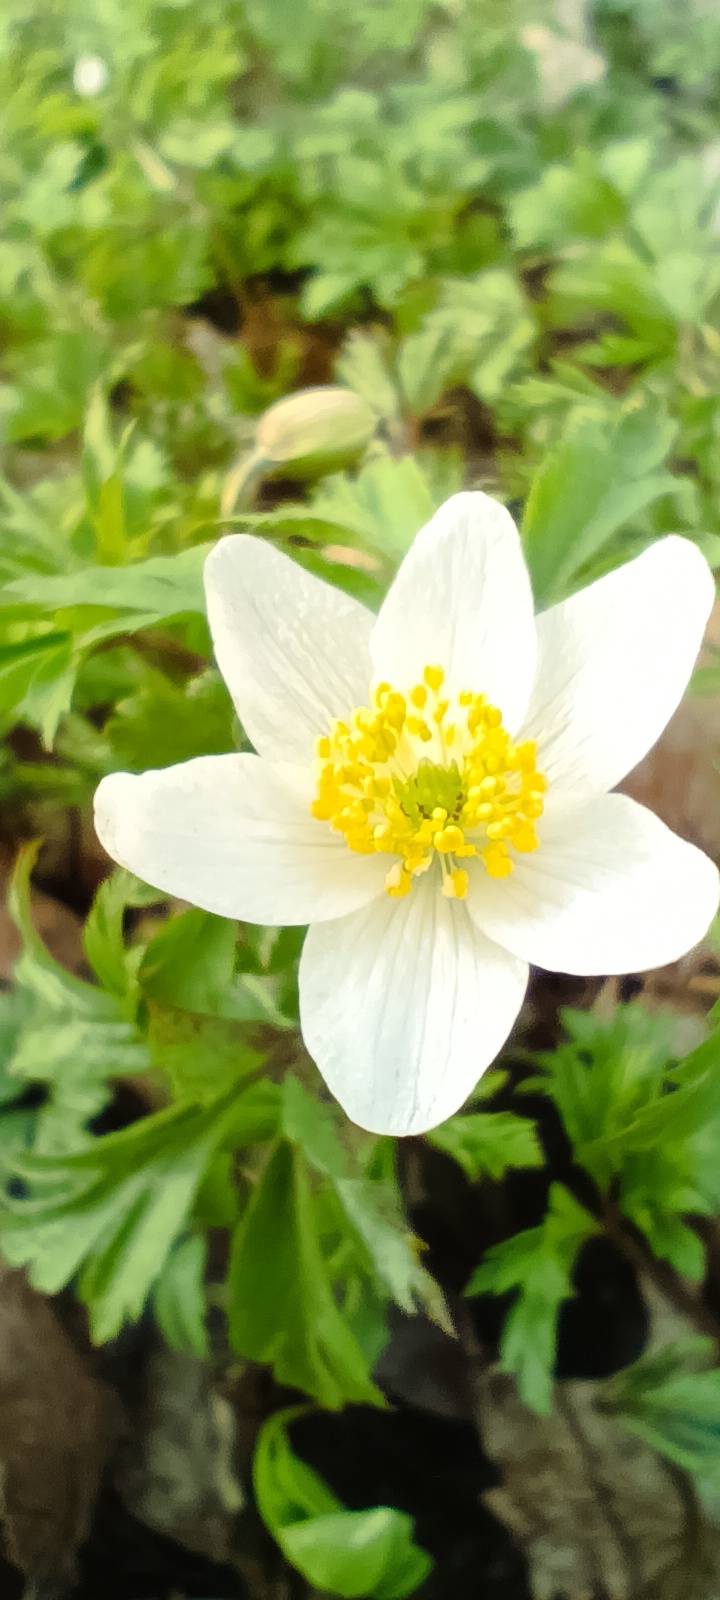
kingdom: Plantae
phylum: Tracheophyta
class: Magnoliopsida
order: Ranunculales
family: Ranunculaceae
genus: Anemone
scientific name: Anemone nemorosa
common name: Wood anemone
